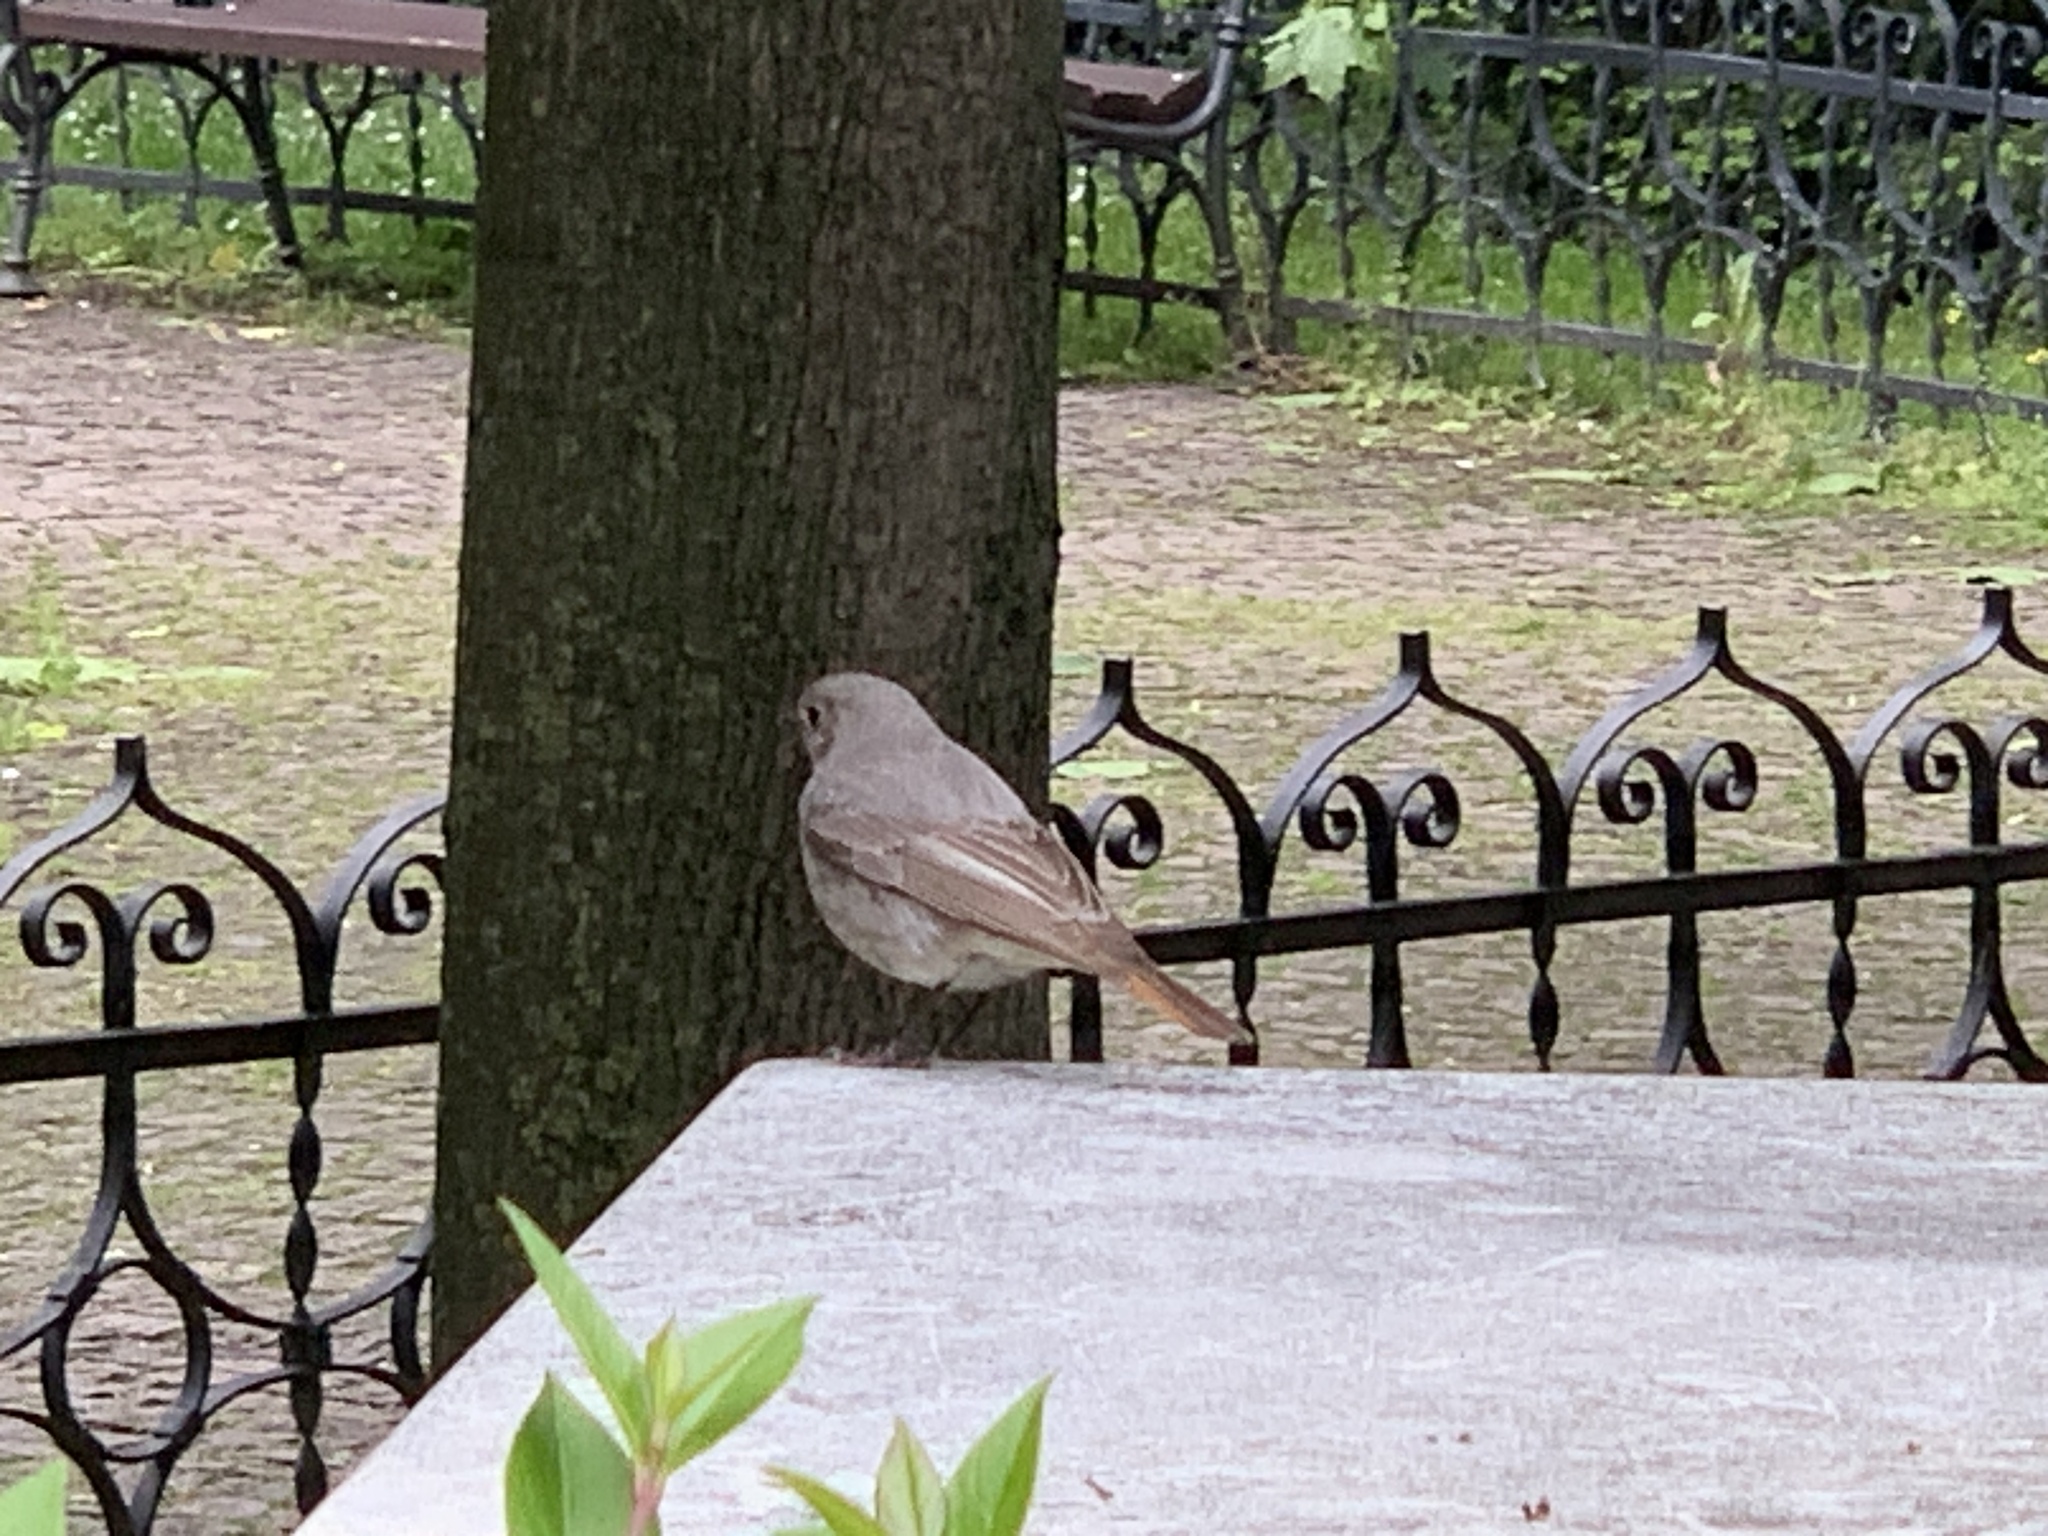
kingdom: Animalia
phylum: Chordata
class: Aves
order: Passeriformes
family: Muscicapidae
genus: Phoenicurus
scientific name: Phoenicurus ochruros
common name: Black redstart
